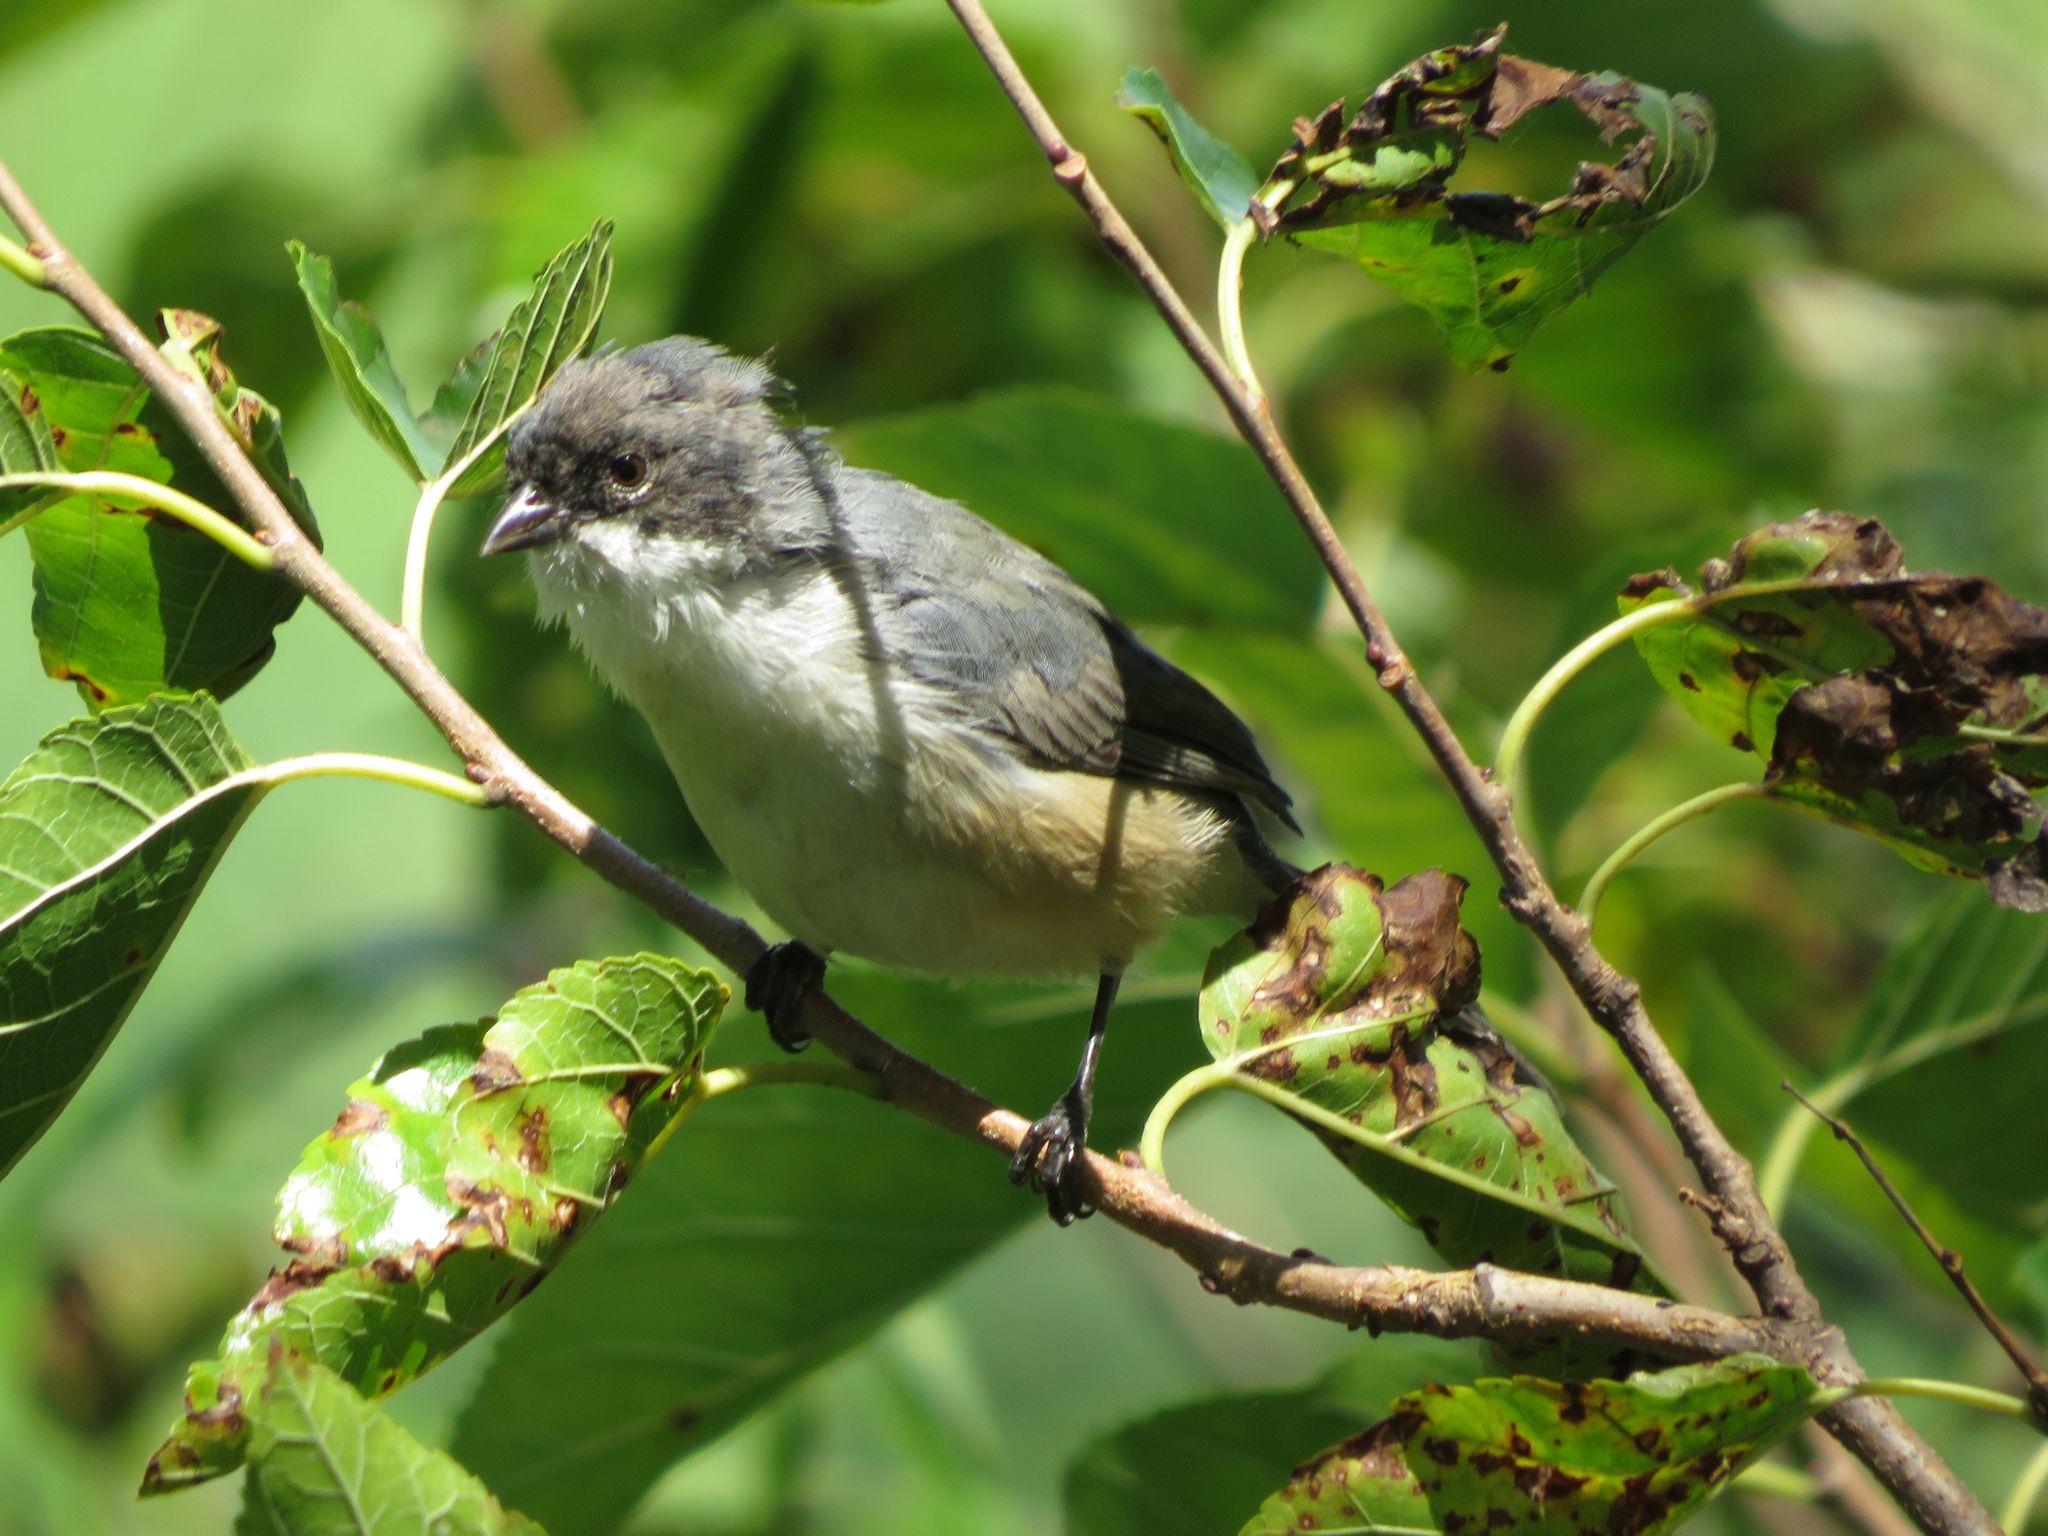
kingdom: Animalia
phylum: Chordata
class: Aves
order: Passeriformes
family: Thraupidae
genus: Microspingus
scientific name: Microspingus melanoleucus
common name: Black-capped warbling-finch
